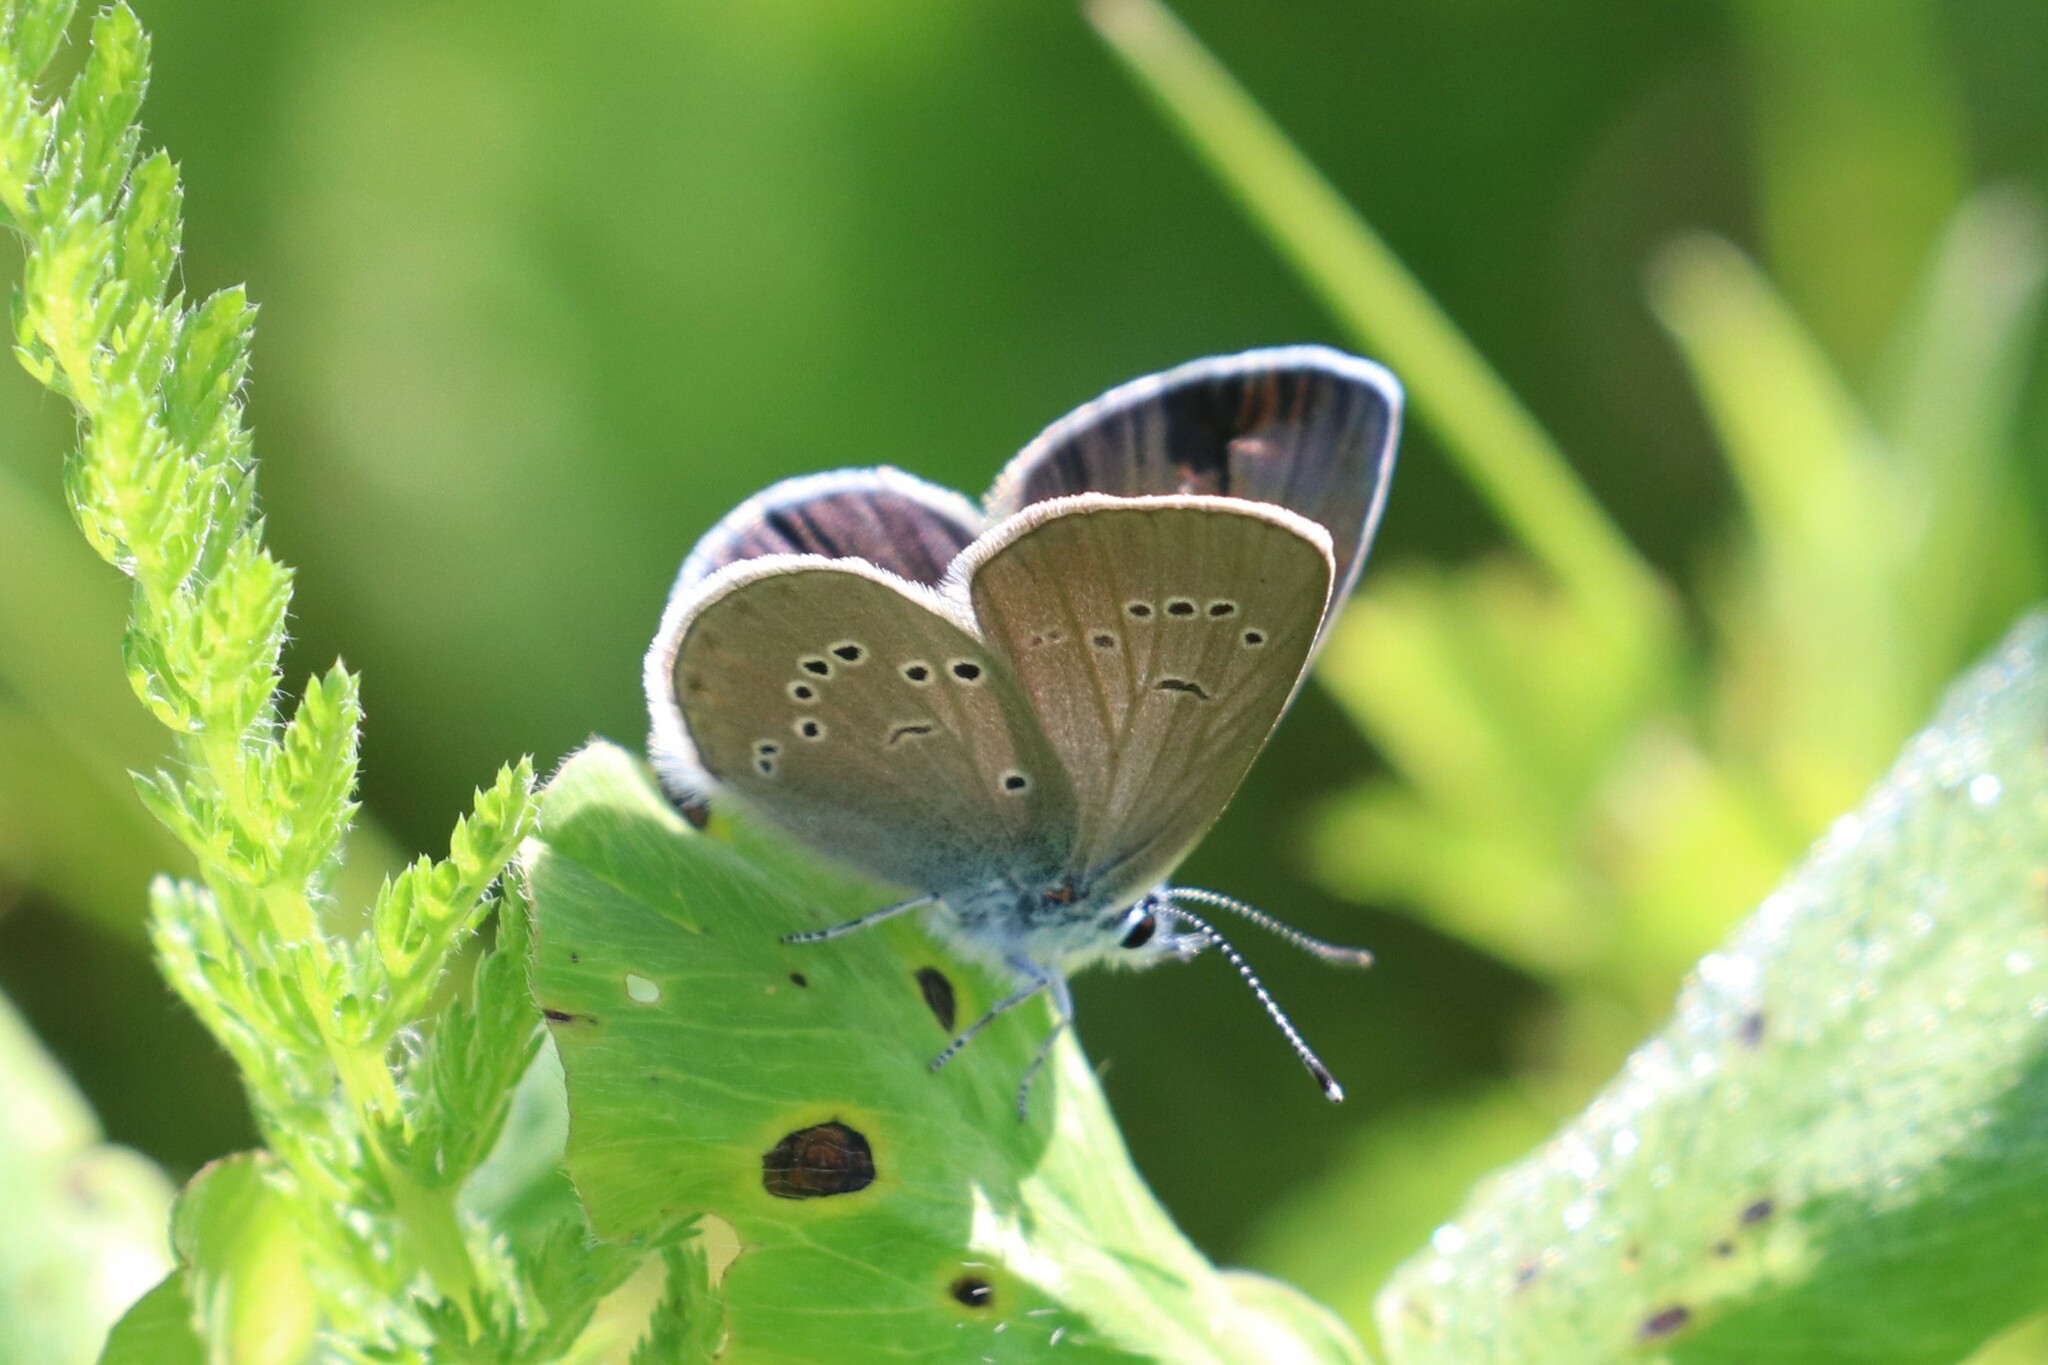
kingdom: Animalia
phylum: Arthropoda
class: Insecta
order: Lepidoptera
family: Lycaenidae
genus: Cyaniris
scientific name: Cyaniris semiargus
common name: Mazarine blue
